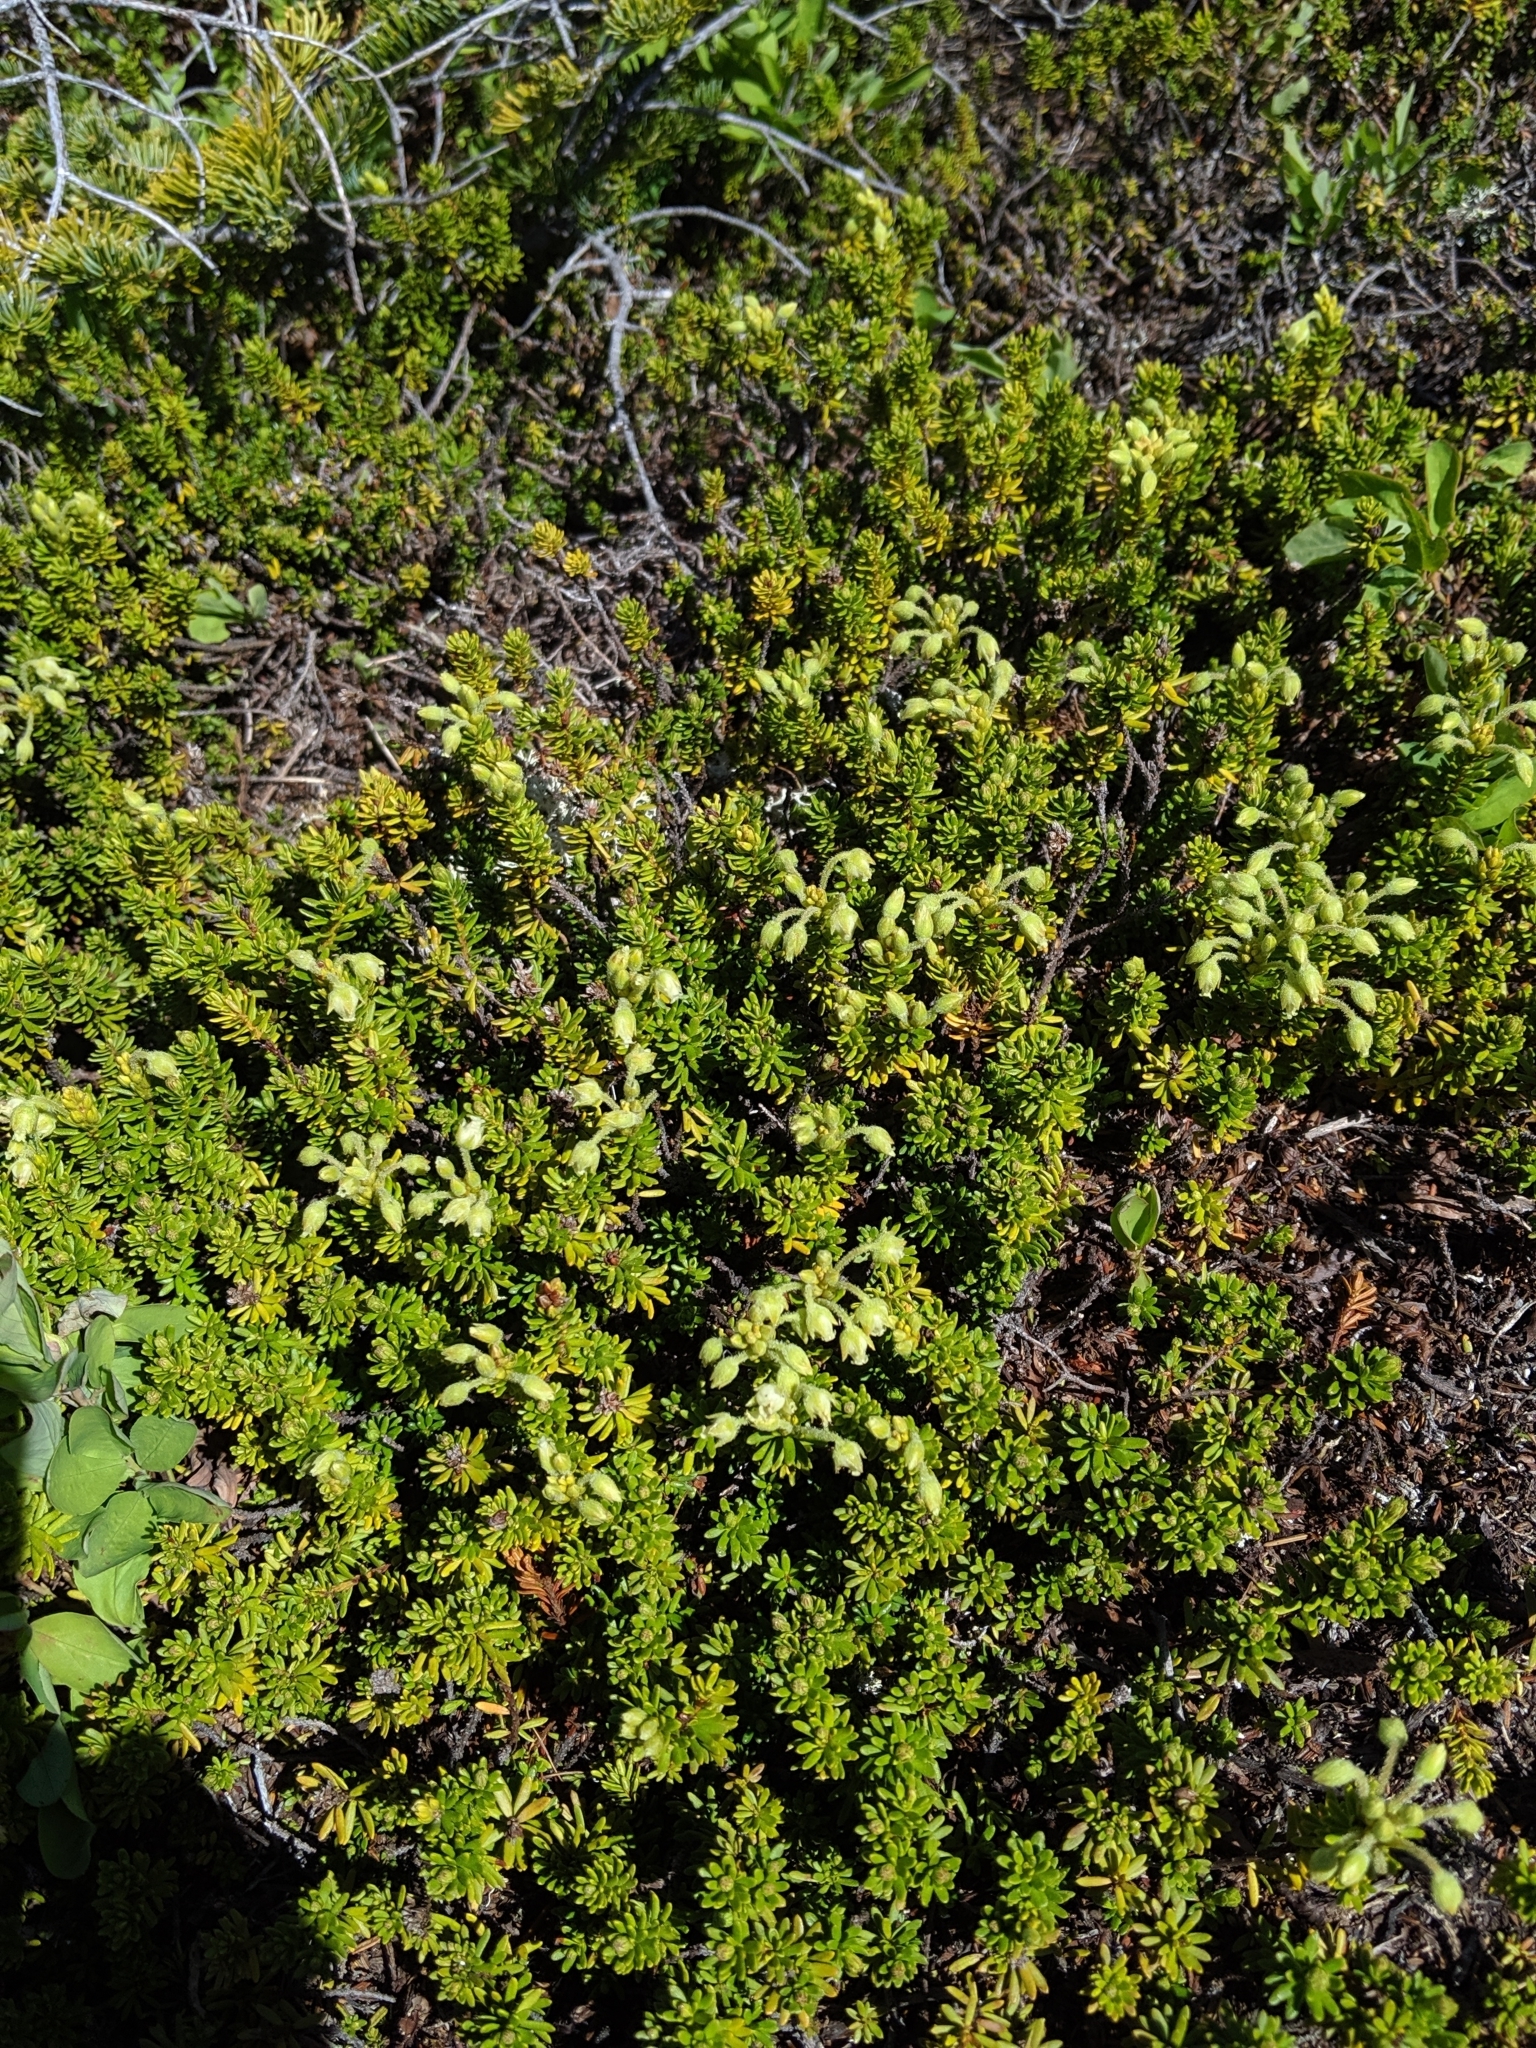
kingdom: Plantae
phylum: Tracheophyta
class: Magnoliopsida
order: Ericales
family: Ericaceae
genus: Empetrum
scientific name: Empetrum nigrum
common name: Black crowberry
